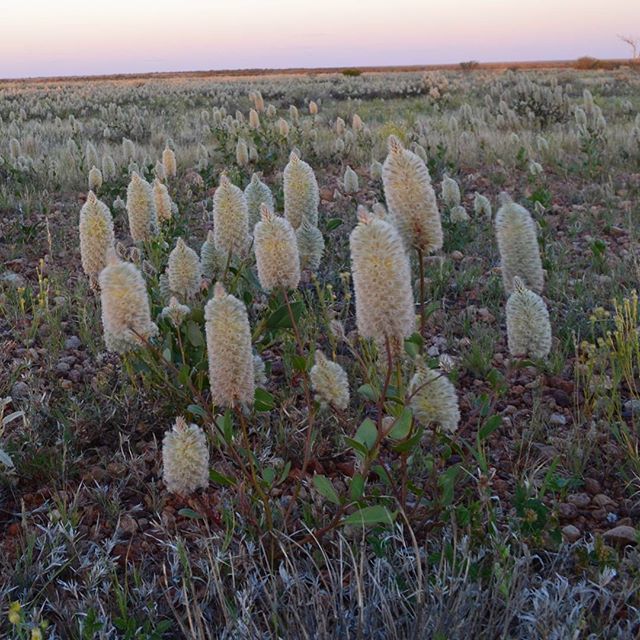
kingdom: Plantae
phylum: Tracheophyta
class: Magnoliopsida
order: Caryophyllales
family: Amaranthaceae
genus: Ptilotus
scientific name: Ptilotus nobilis
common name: Regal-foxtail
